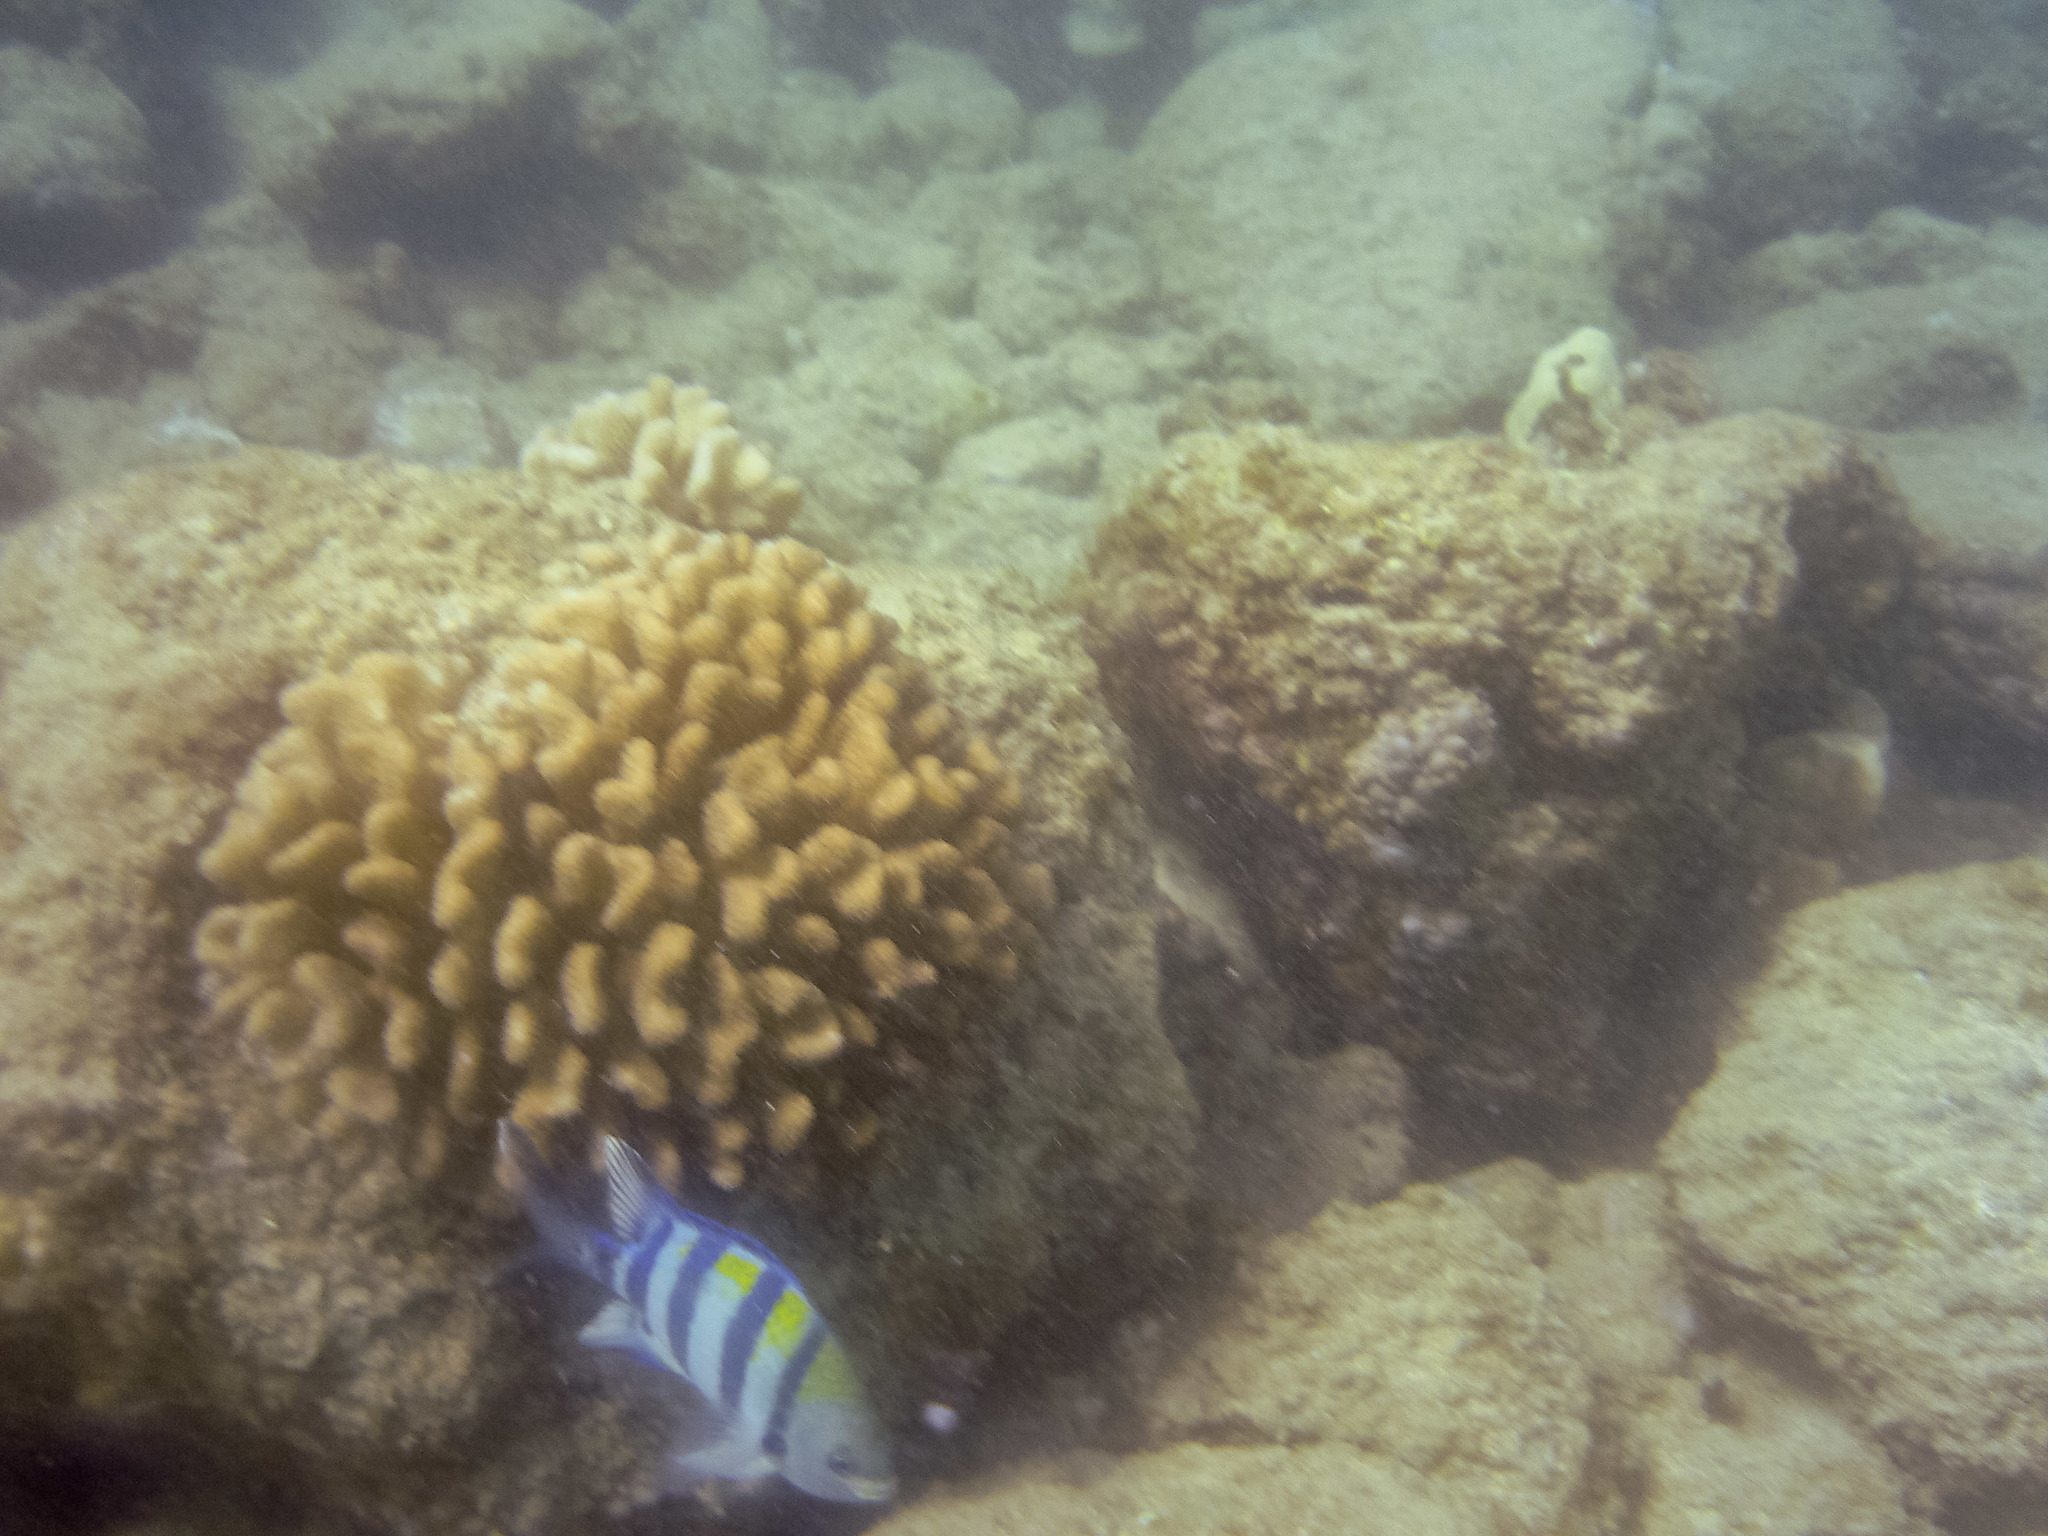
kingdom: Animalia
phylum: Chordata
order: Perciformes
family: Pomacentridae
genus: Abudefduf
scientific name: Abudefduf vaigiensis
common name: Indo-pacific sergeant
